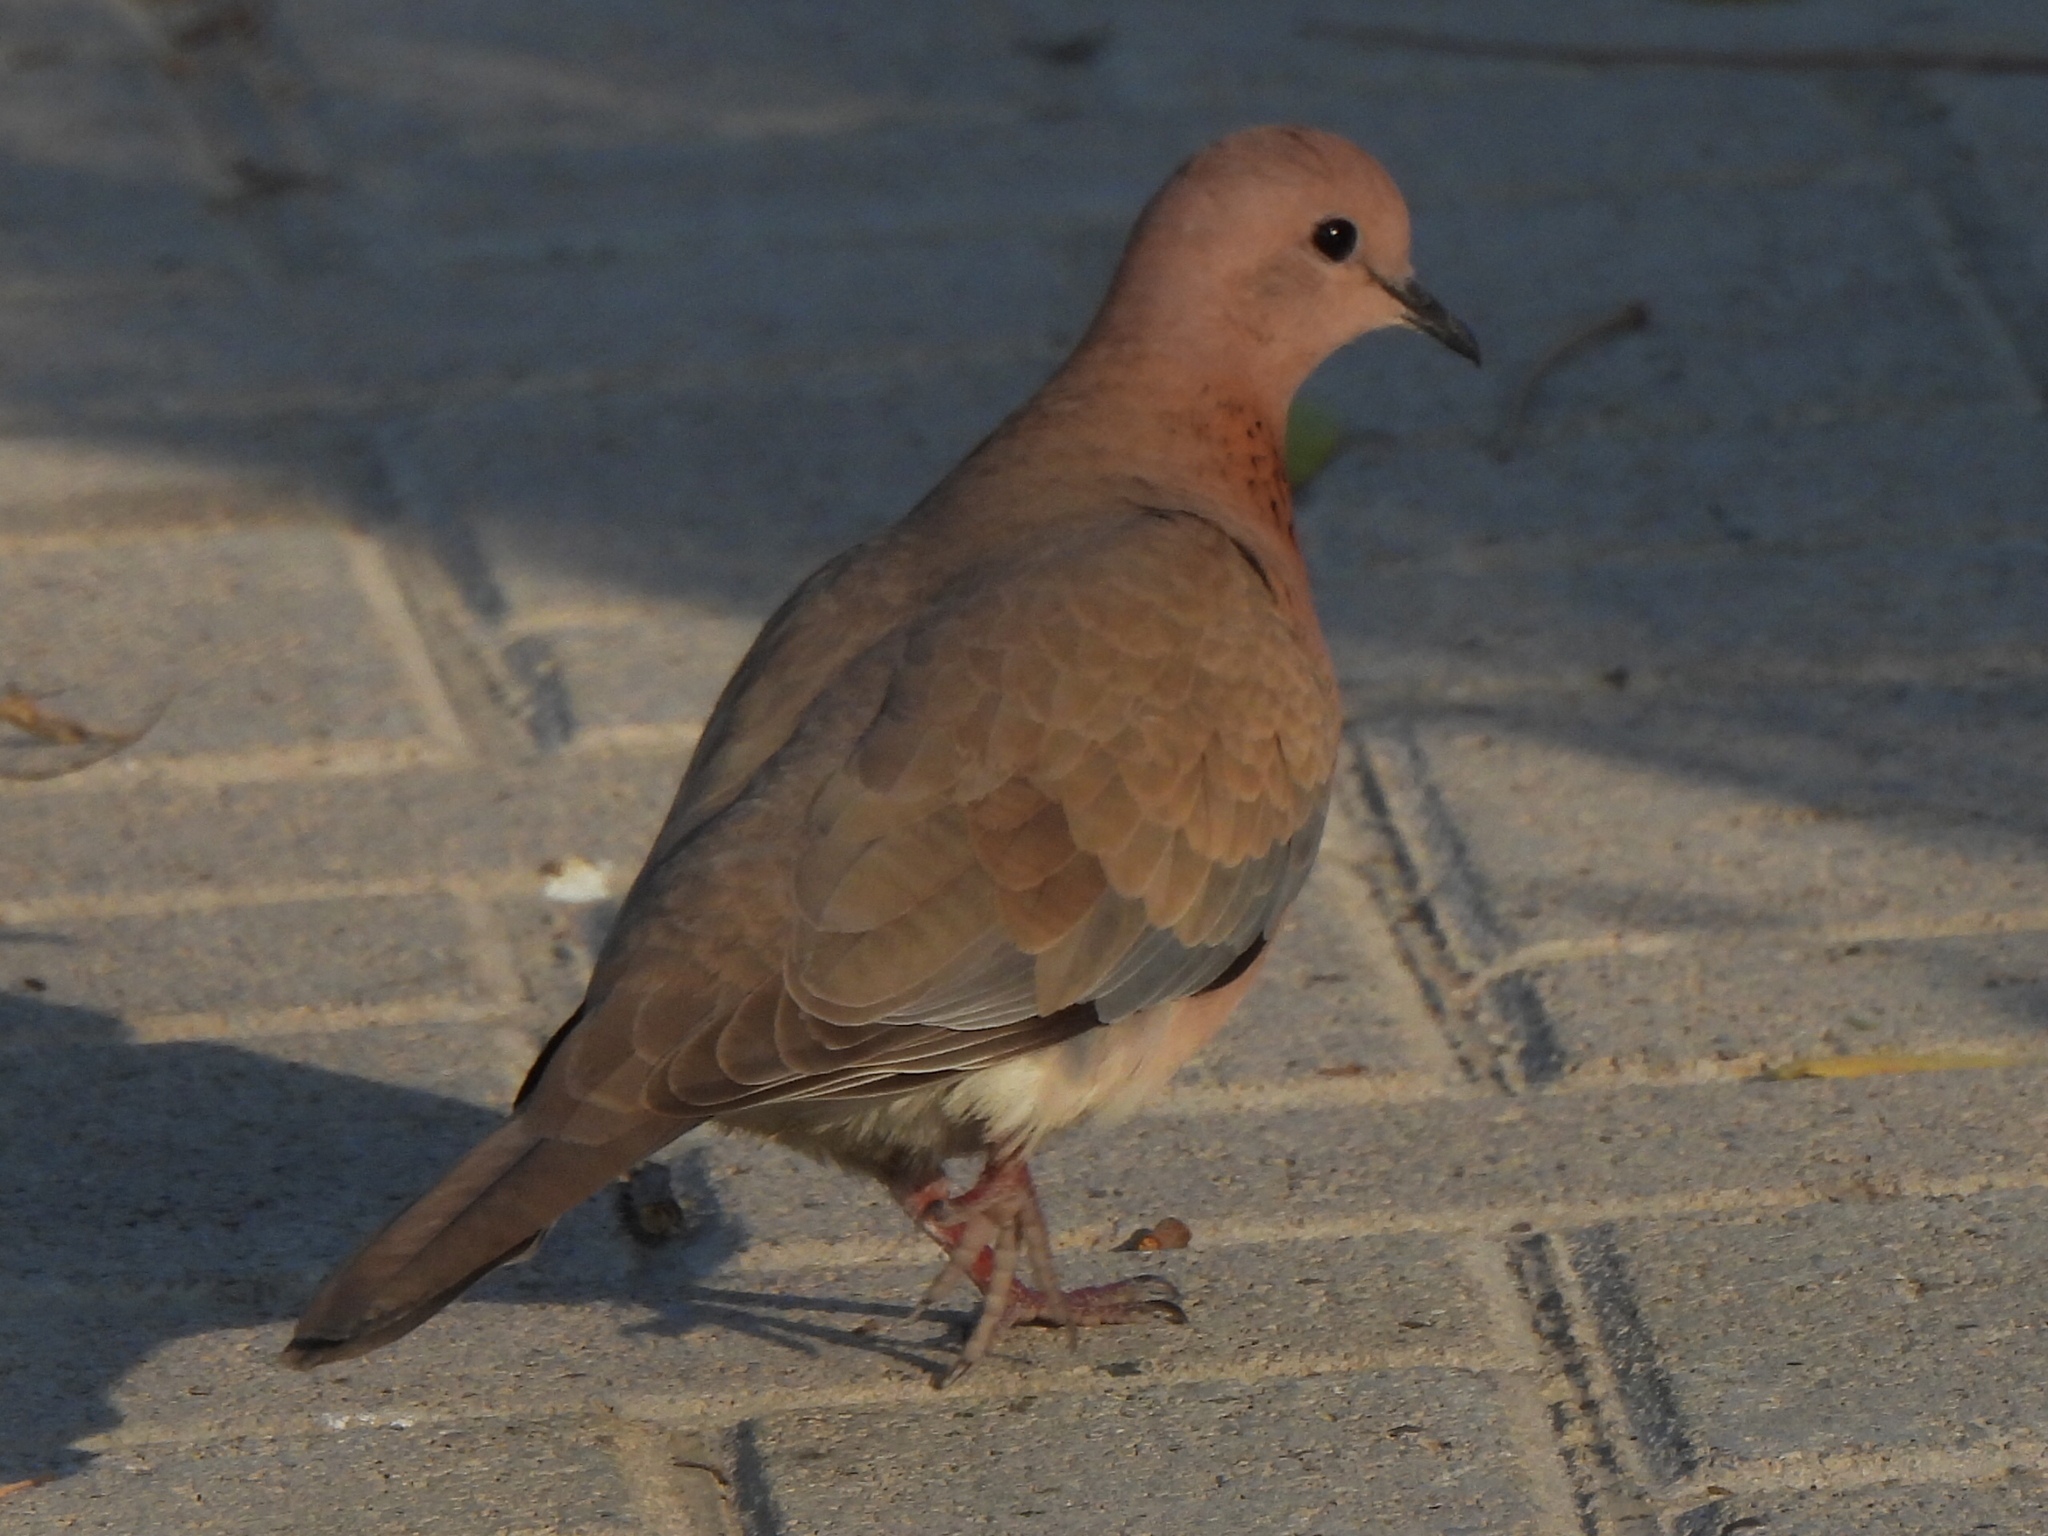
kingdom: Animalia
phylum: Chordata
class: Aves
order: Columbiformes
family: Columbidae
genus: Spilopelia
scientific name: Spilopelia senegalensis
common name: Laughing dove
